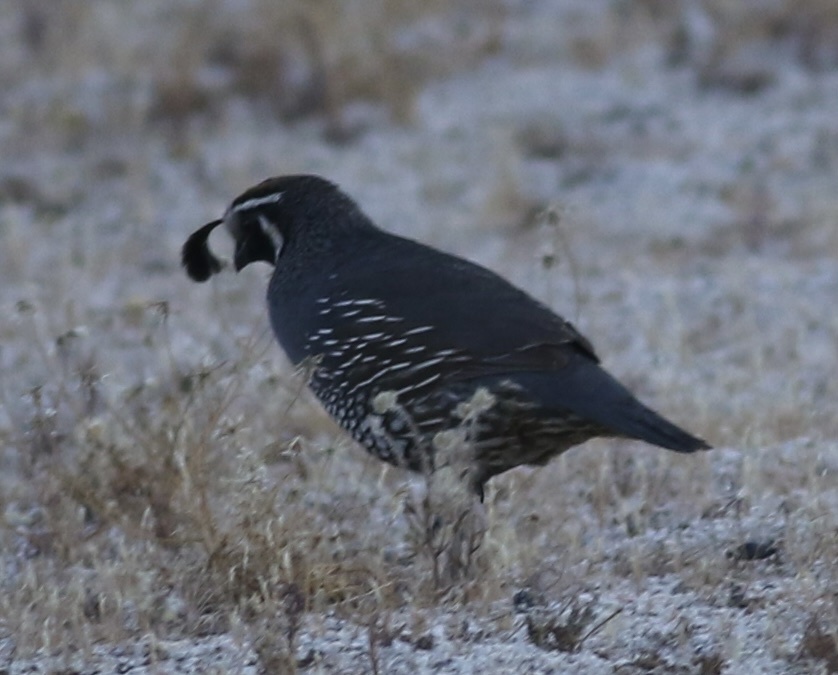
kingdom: Animalia
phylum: Chordata
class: Aves
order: Galliformes
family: Odontophoridae
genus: Callipepla
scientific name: Callipepla californica
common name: California quail
